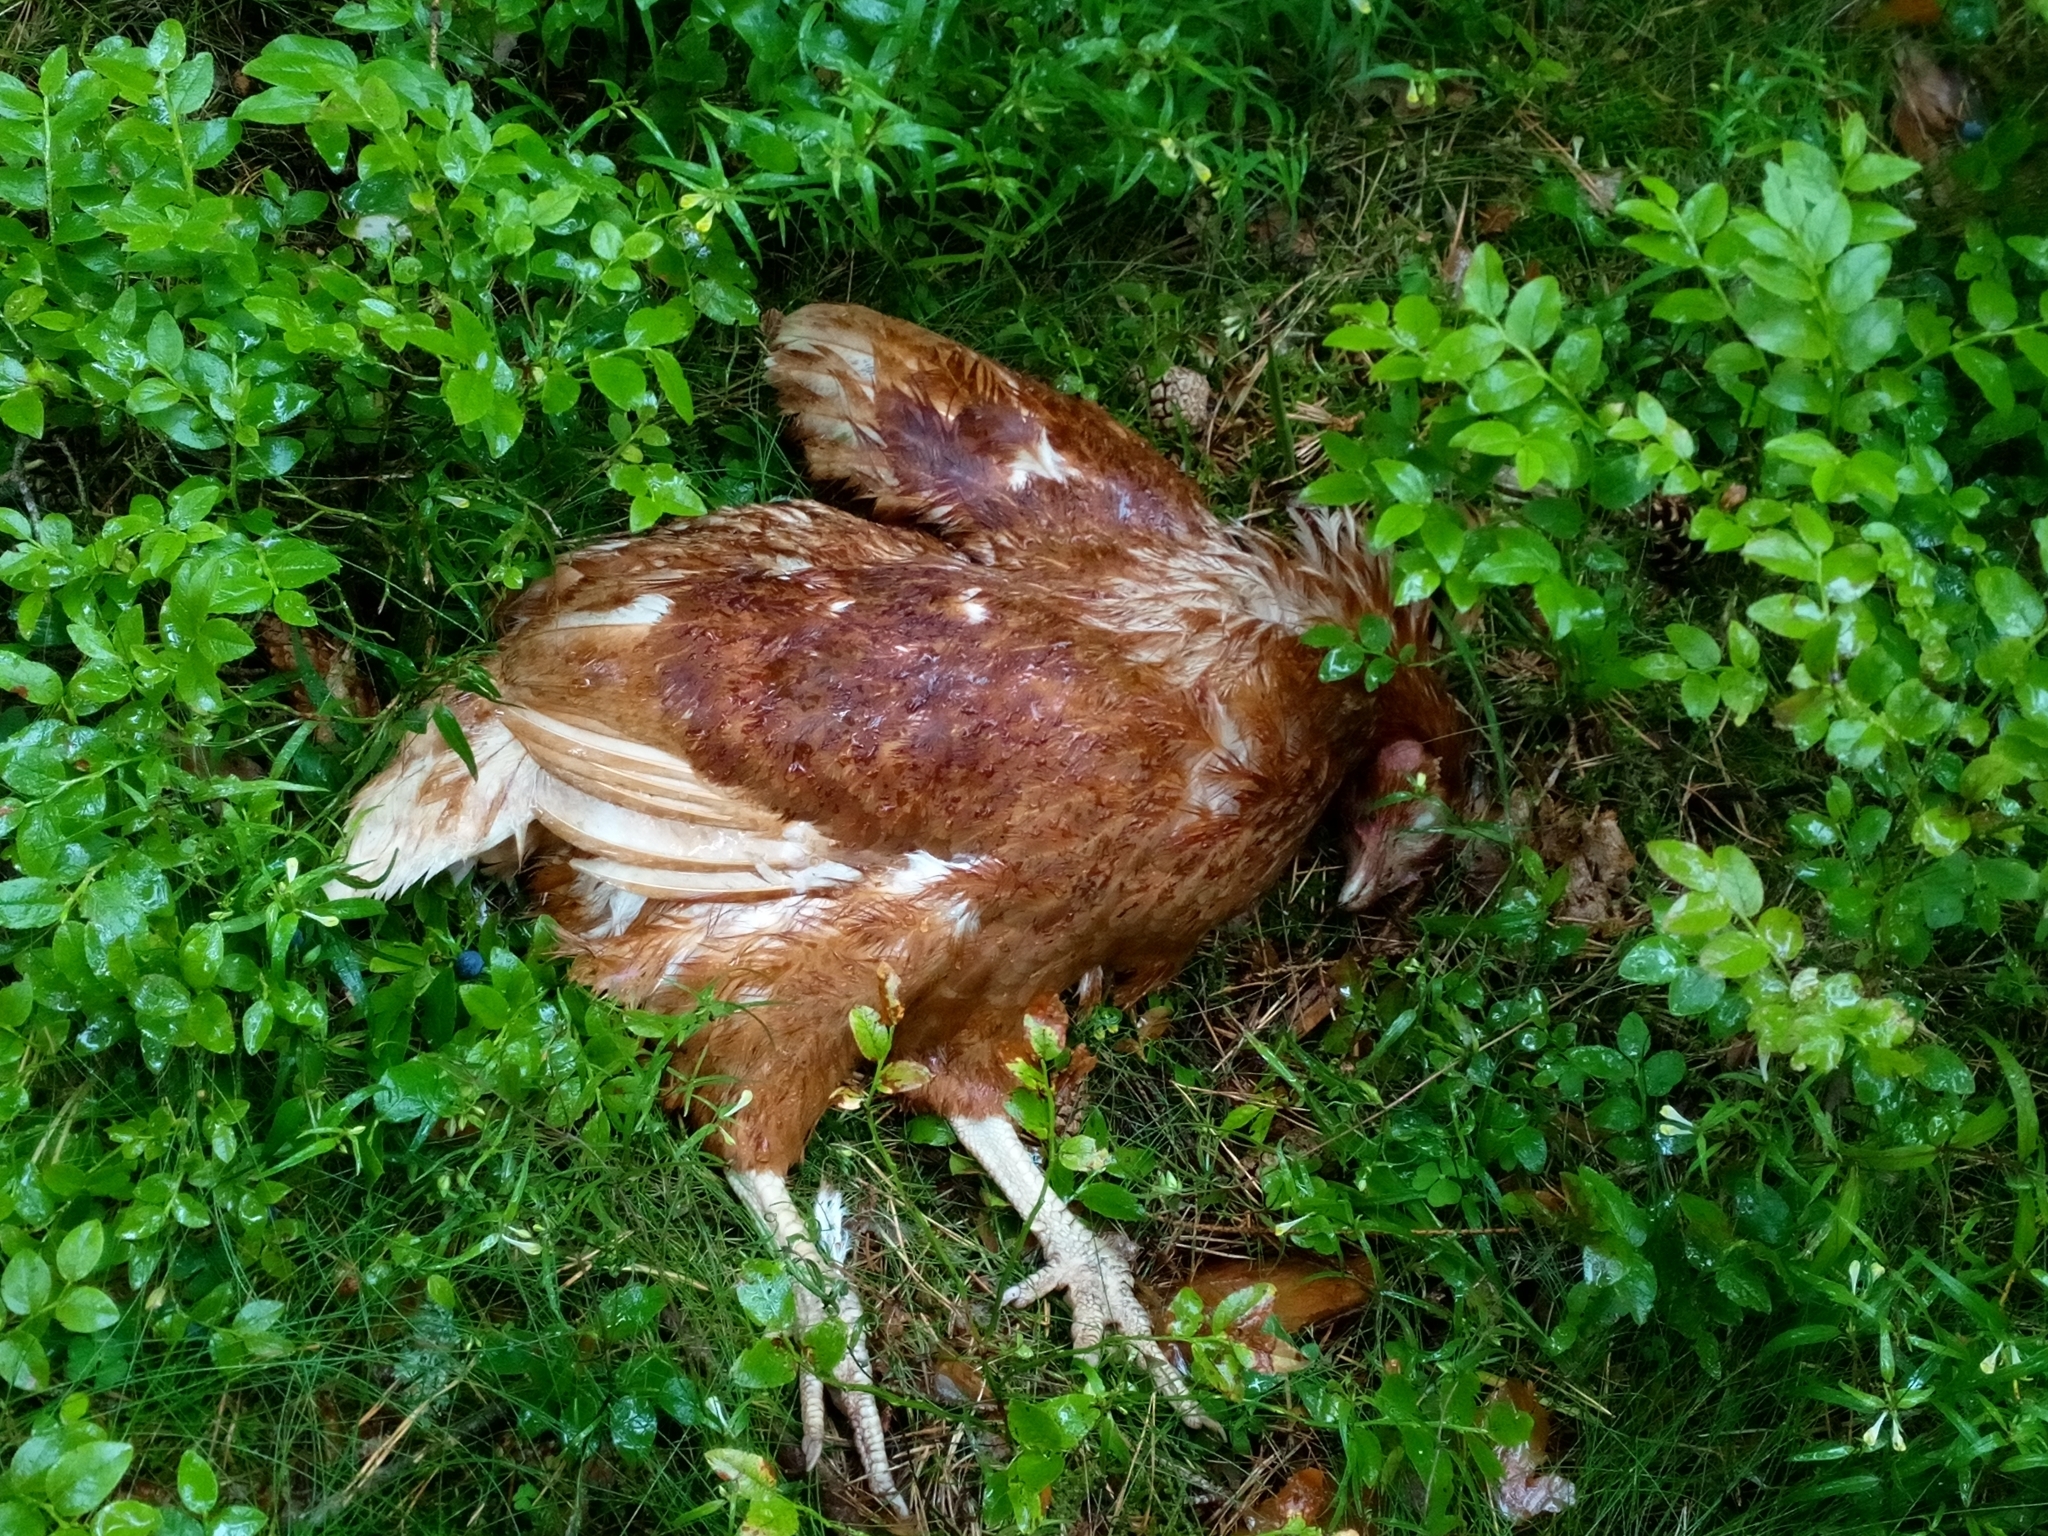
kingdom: Animalia
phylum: Chordata
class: Aves
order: Galliformes
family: Phasianidae
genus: Gallus
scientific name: Gallus gallus
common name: Red junglefowl
